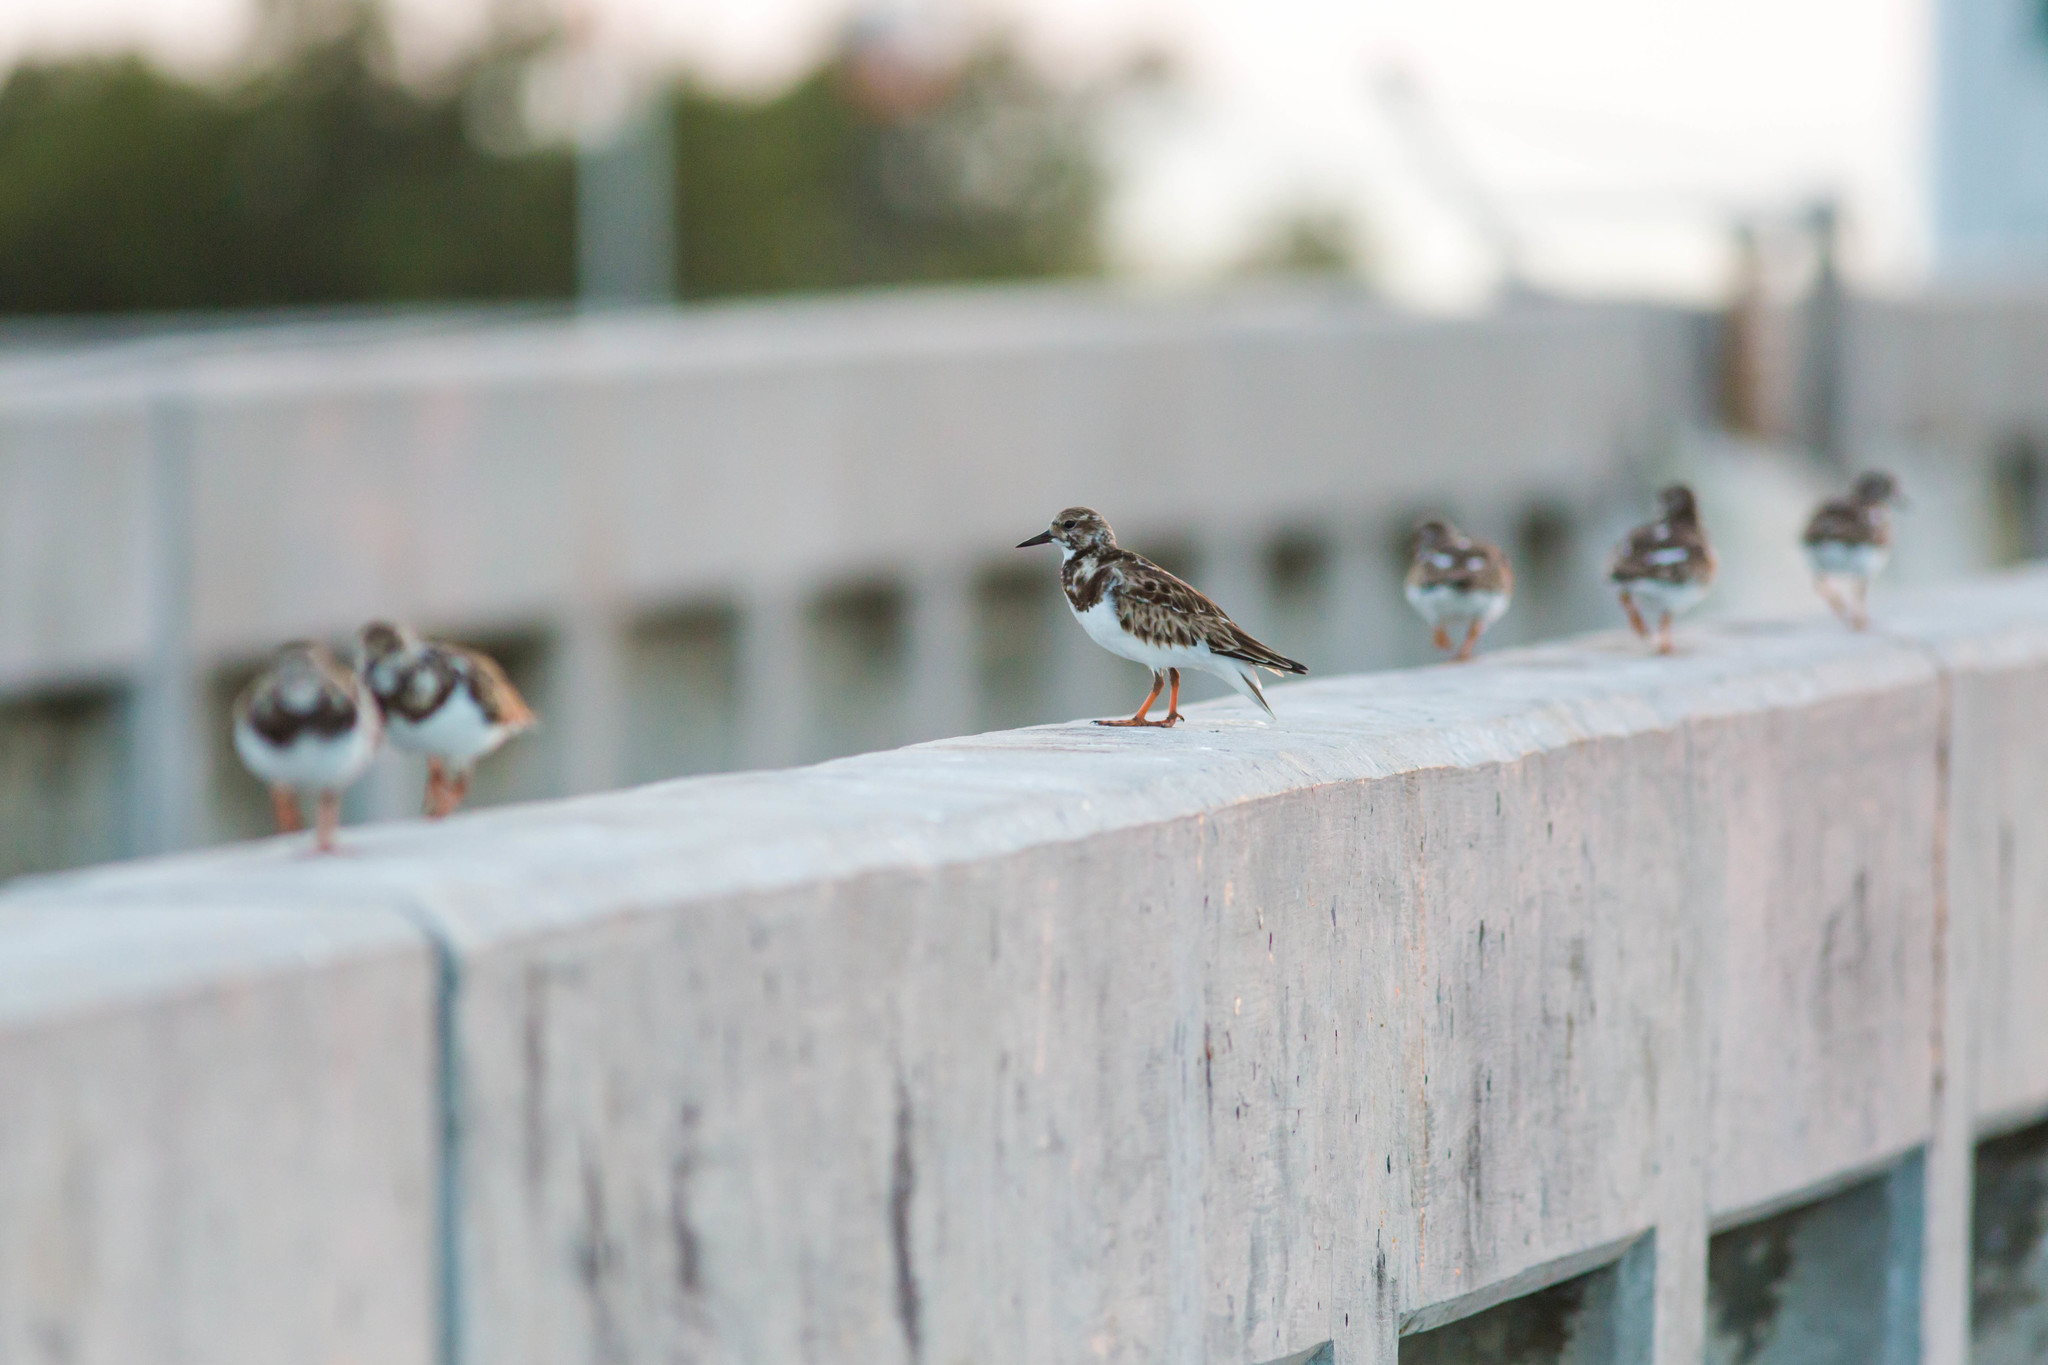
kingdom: Animalia
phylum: Chordata
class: Aves
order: Charadriiformes
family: Scolopacidae
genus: Arenaria
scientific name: Arenaria interpres
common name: Ruddy turnstone
